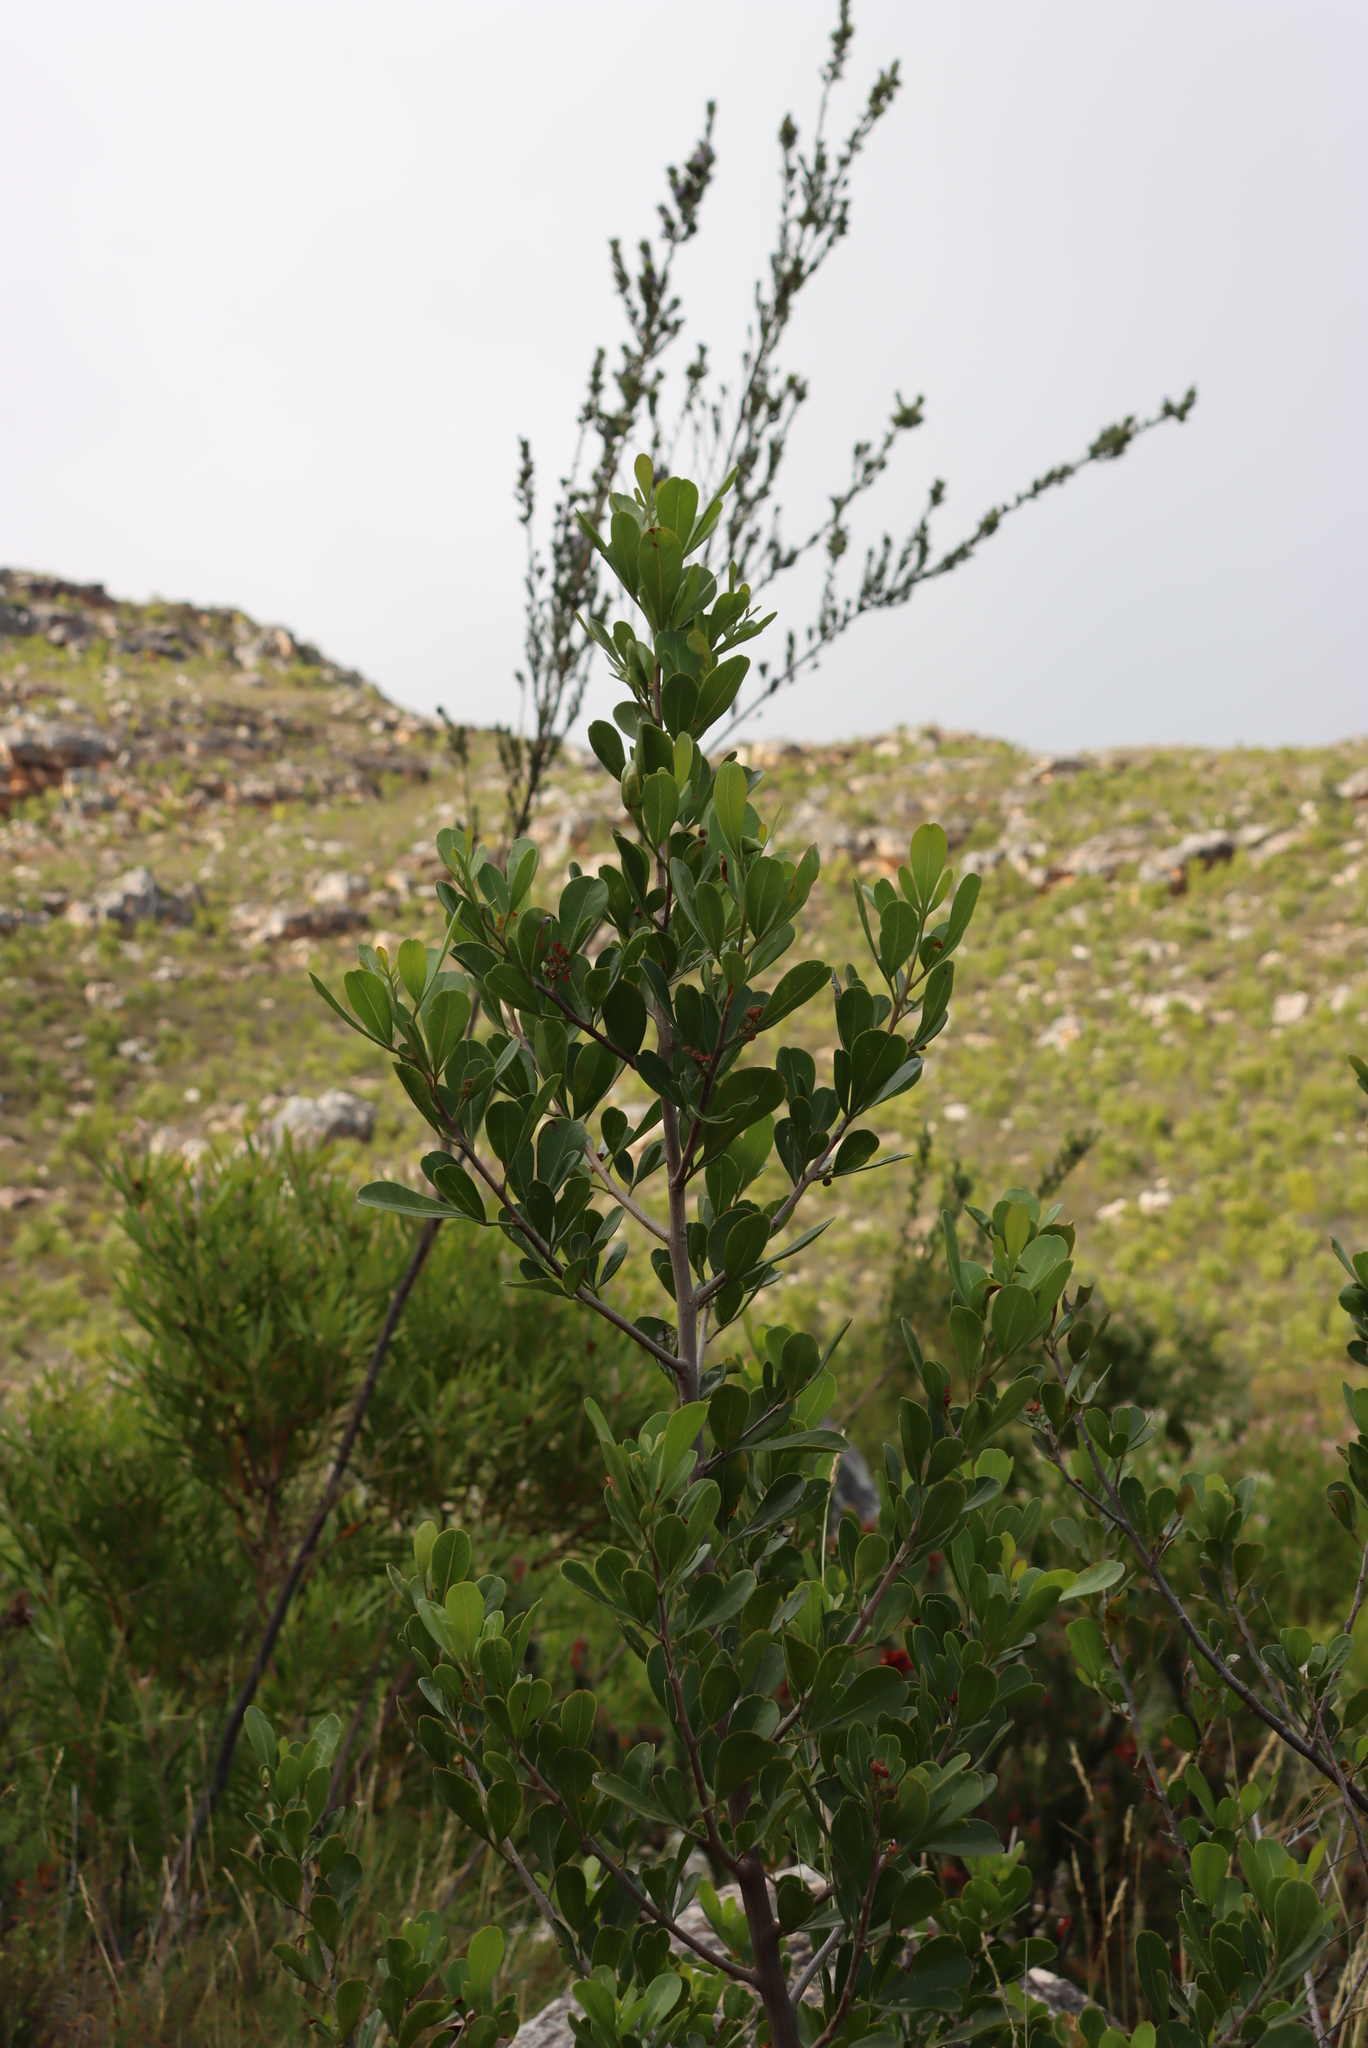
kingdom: Plantae
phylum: Tracheophyta
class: Magnoliopsida
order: Sapindales
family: Anacardiaceae
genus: Searsia
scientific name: Searsia lucida
